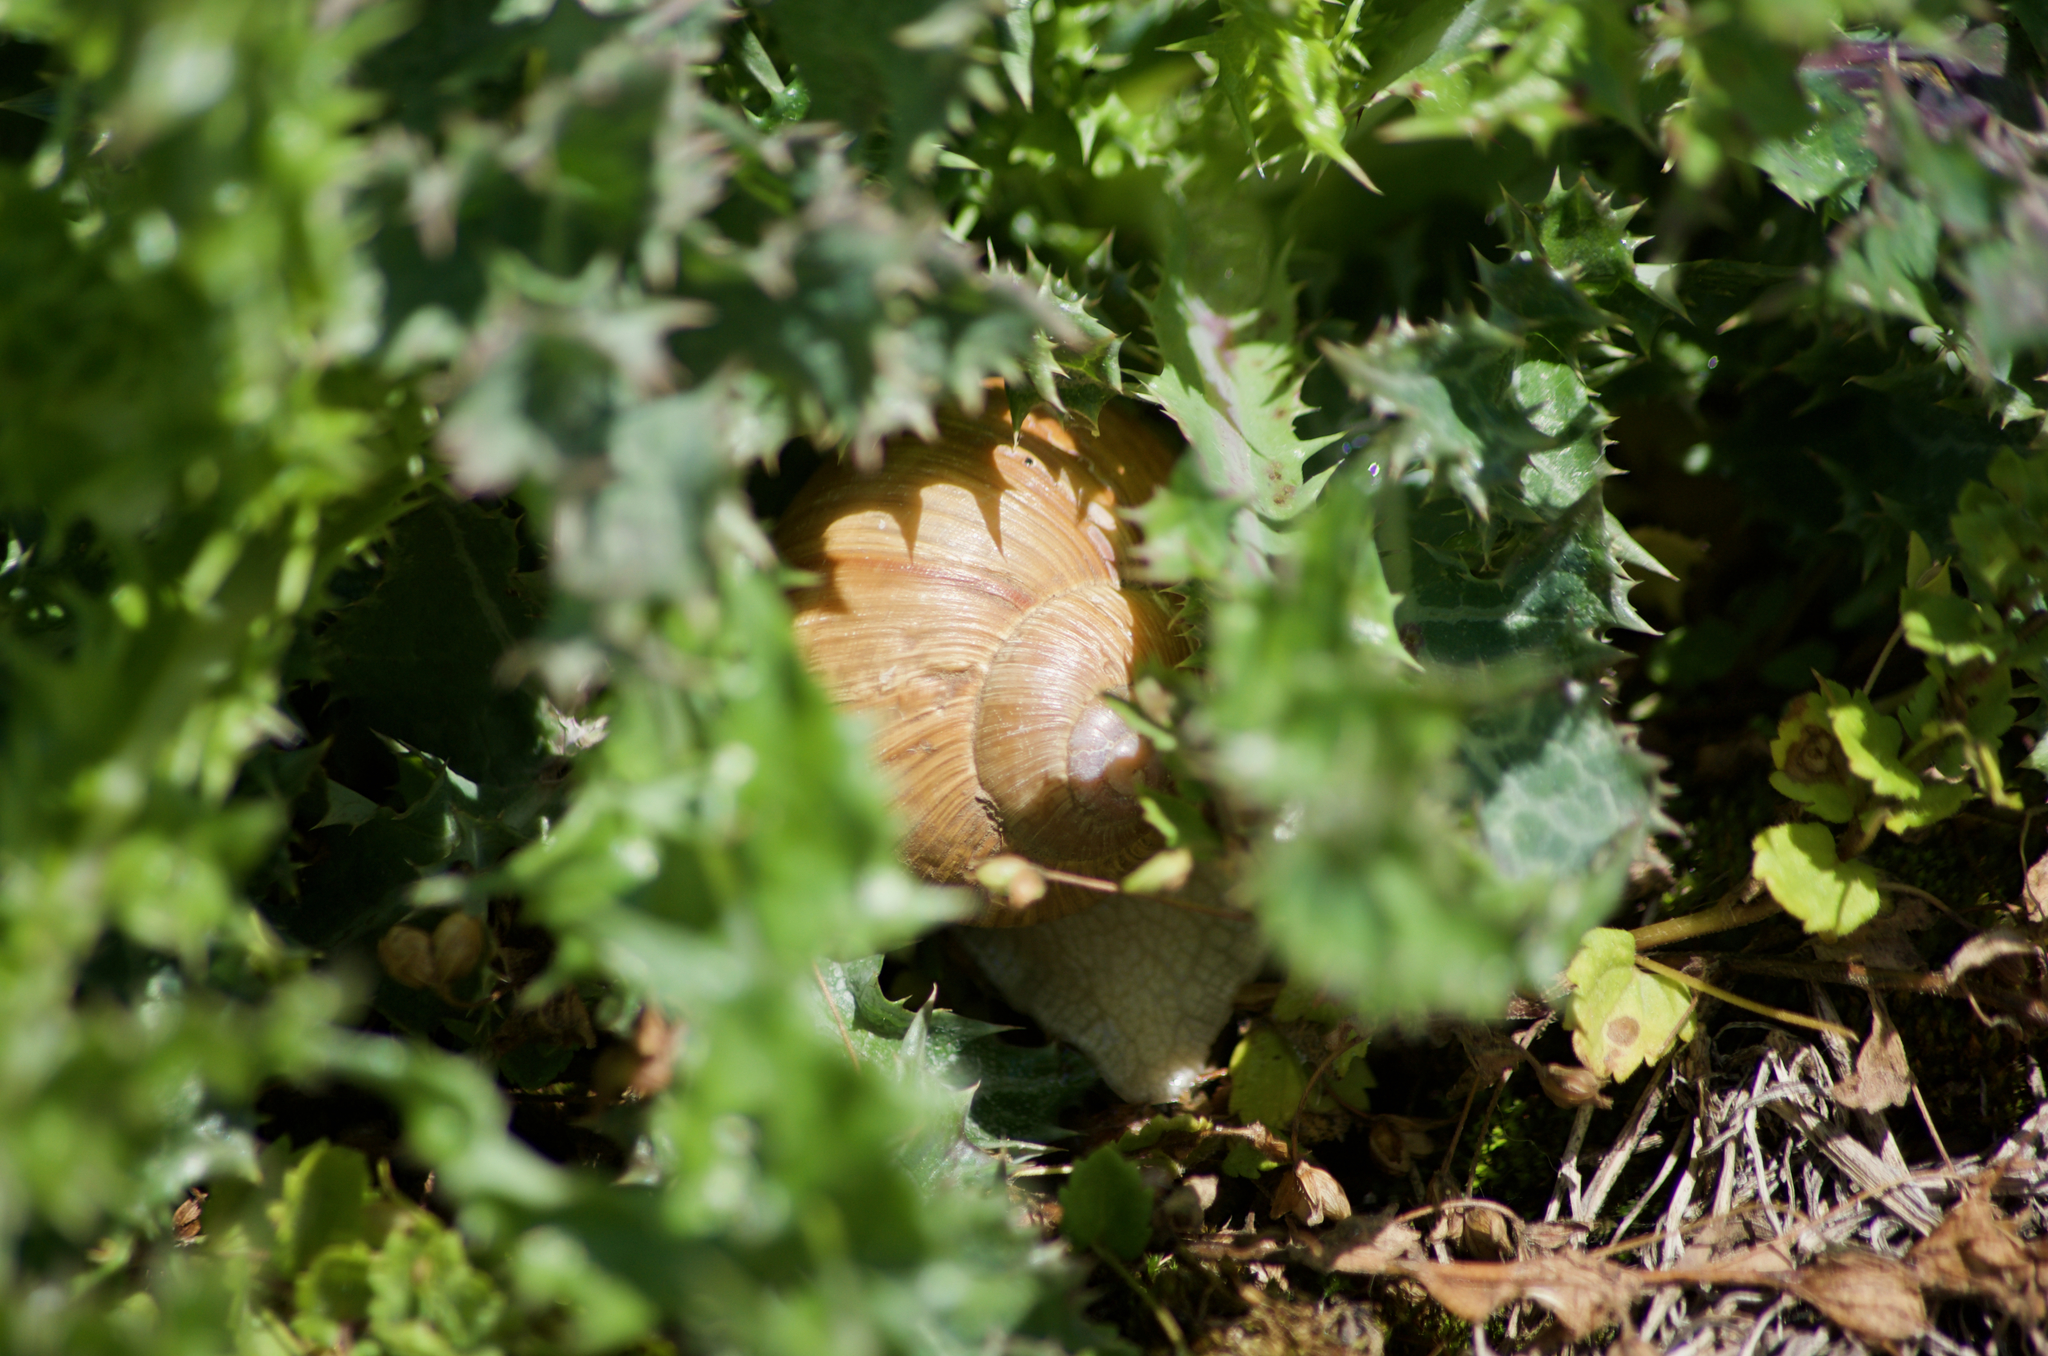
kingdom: Animalia
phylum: Mollusca
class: Gastropoda
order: Stylommatophora
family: Helicidae
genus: Helix
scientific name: Helix pomatia
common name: Roman snail
